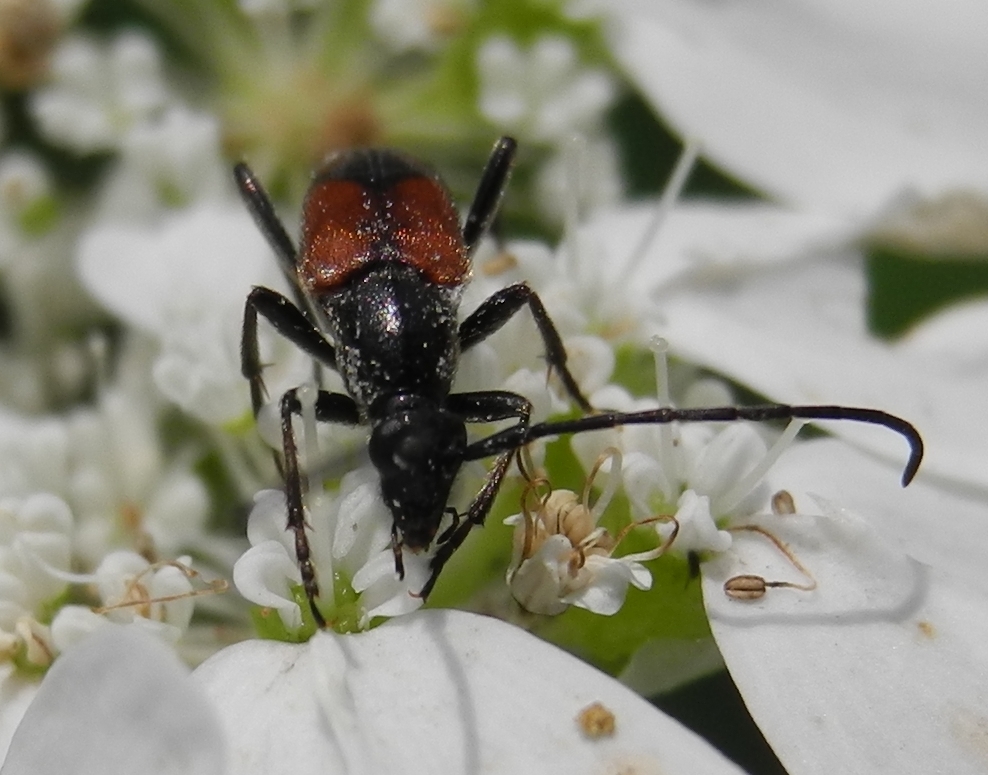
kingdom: Animalia
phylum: Arthropoda
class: Insecta
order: Coleoptera
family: Cerambycidae
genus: Stenurella
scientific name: Stenurella bifasciata
